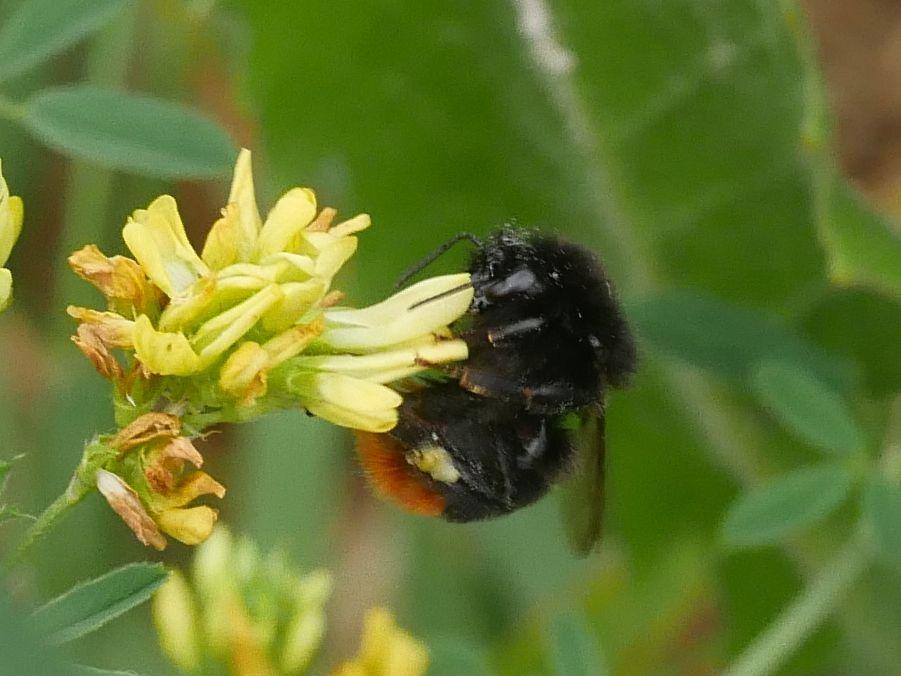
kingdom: Animalia
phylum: Arthropoda
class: Insecta
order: Hymenoptera
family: Apidae
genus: Bombus
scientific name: Bombus lapidarius
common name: Large red-tailed humble-bee
